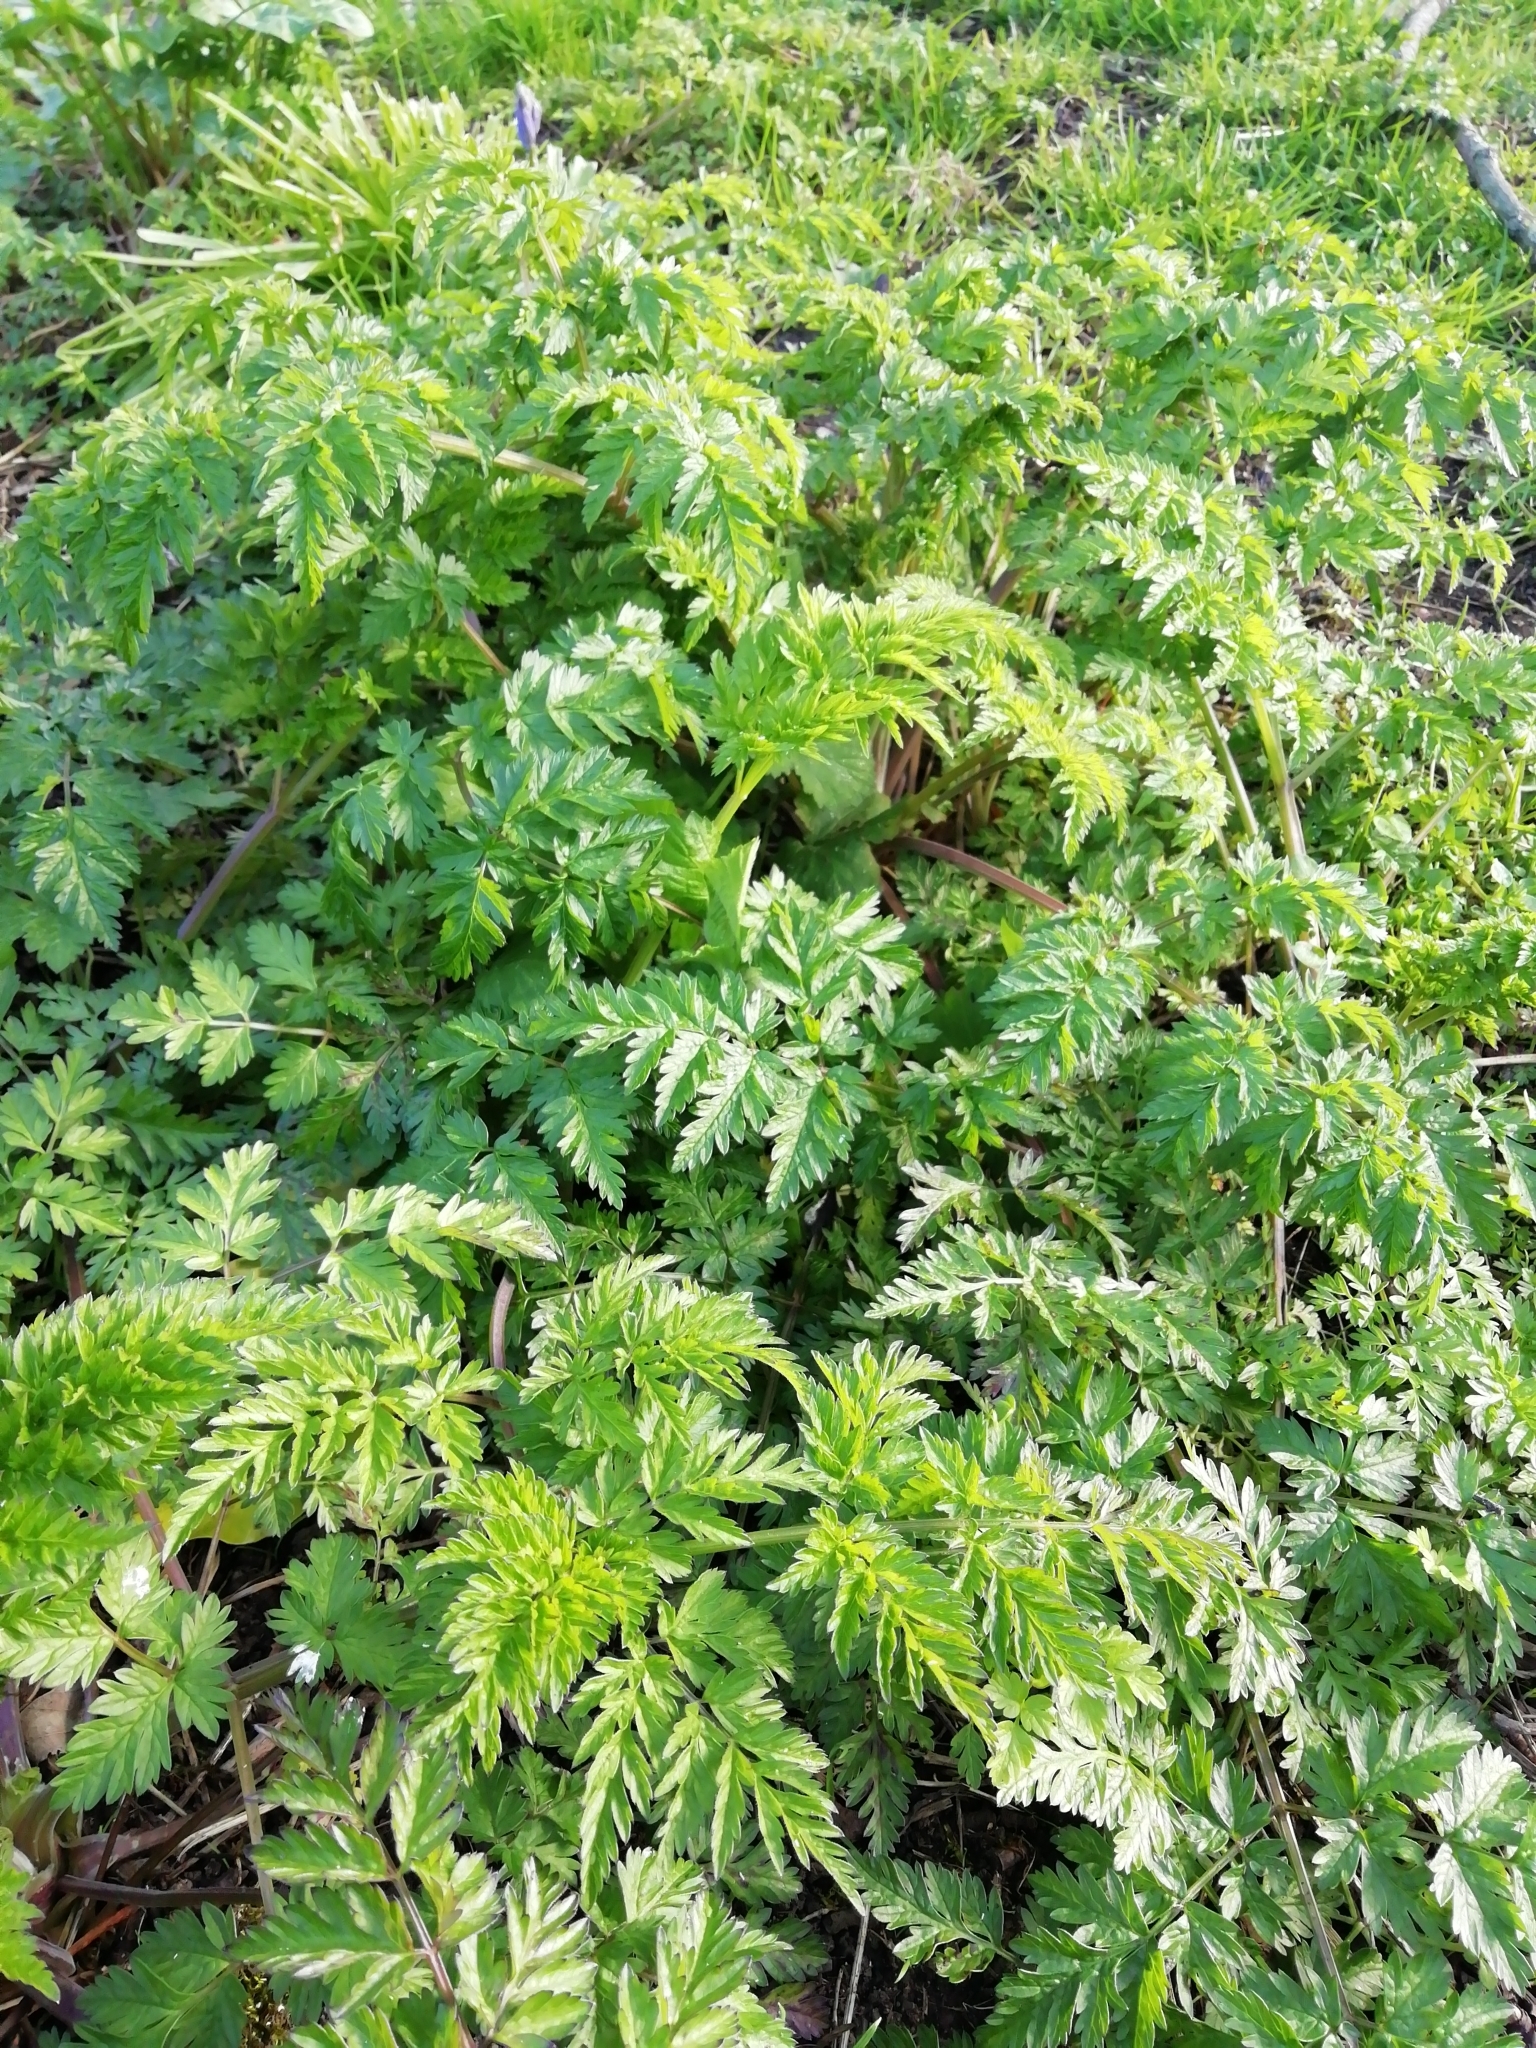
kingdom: Plantae
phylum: Tracheophyta
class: Magnoliopsida
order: Apiales
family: Apiaceae
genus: Anthriscus
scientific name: Anthriscus sylvestris
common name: Cow parsley
